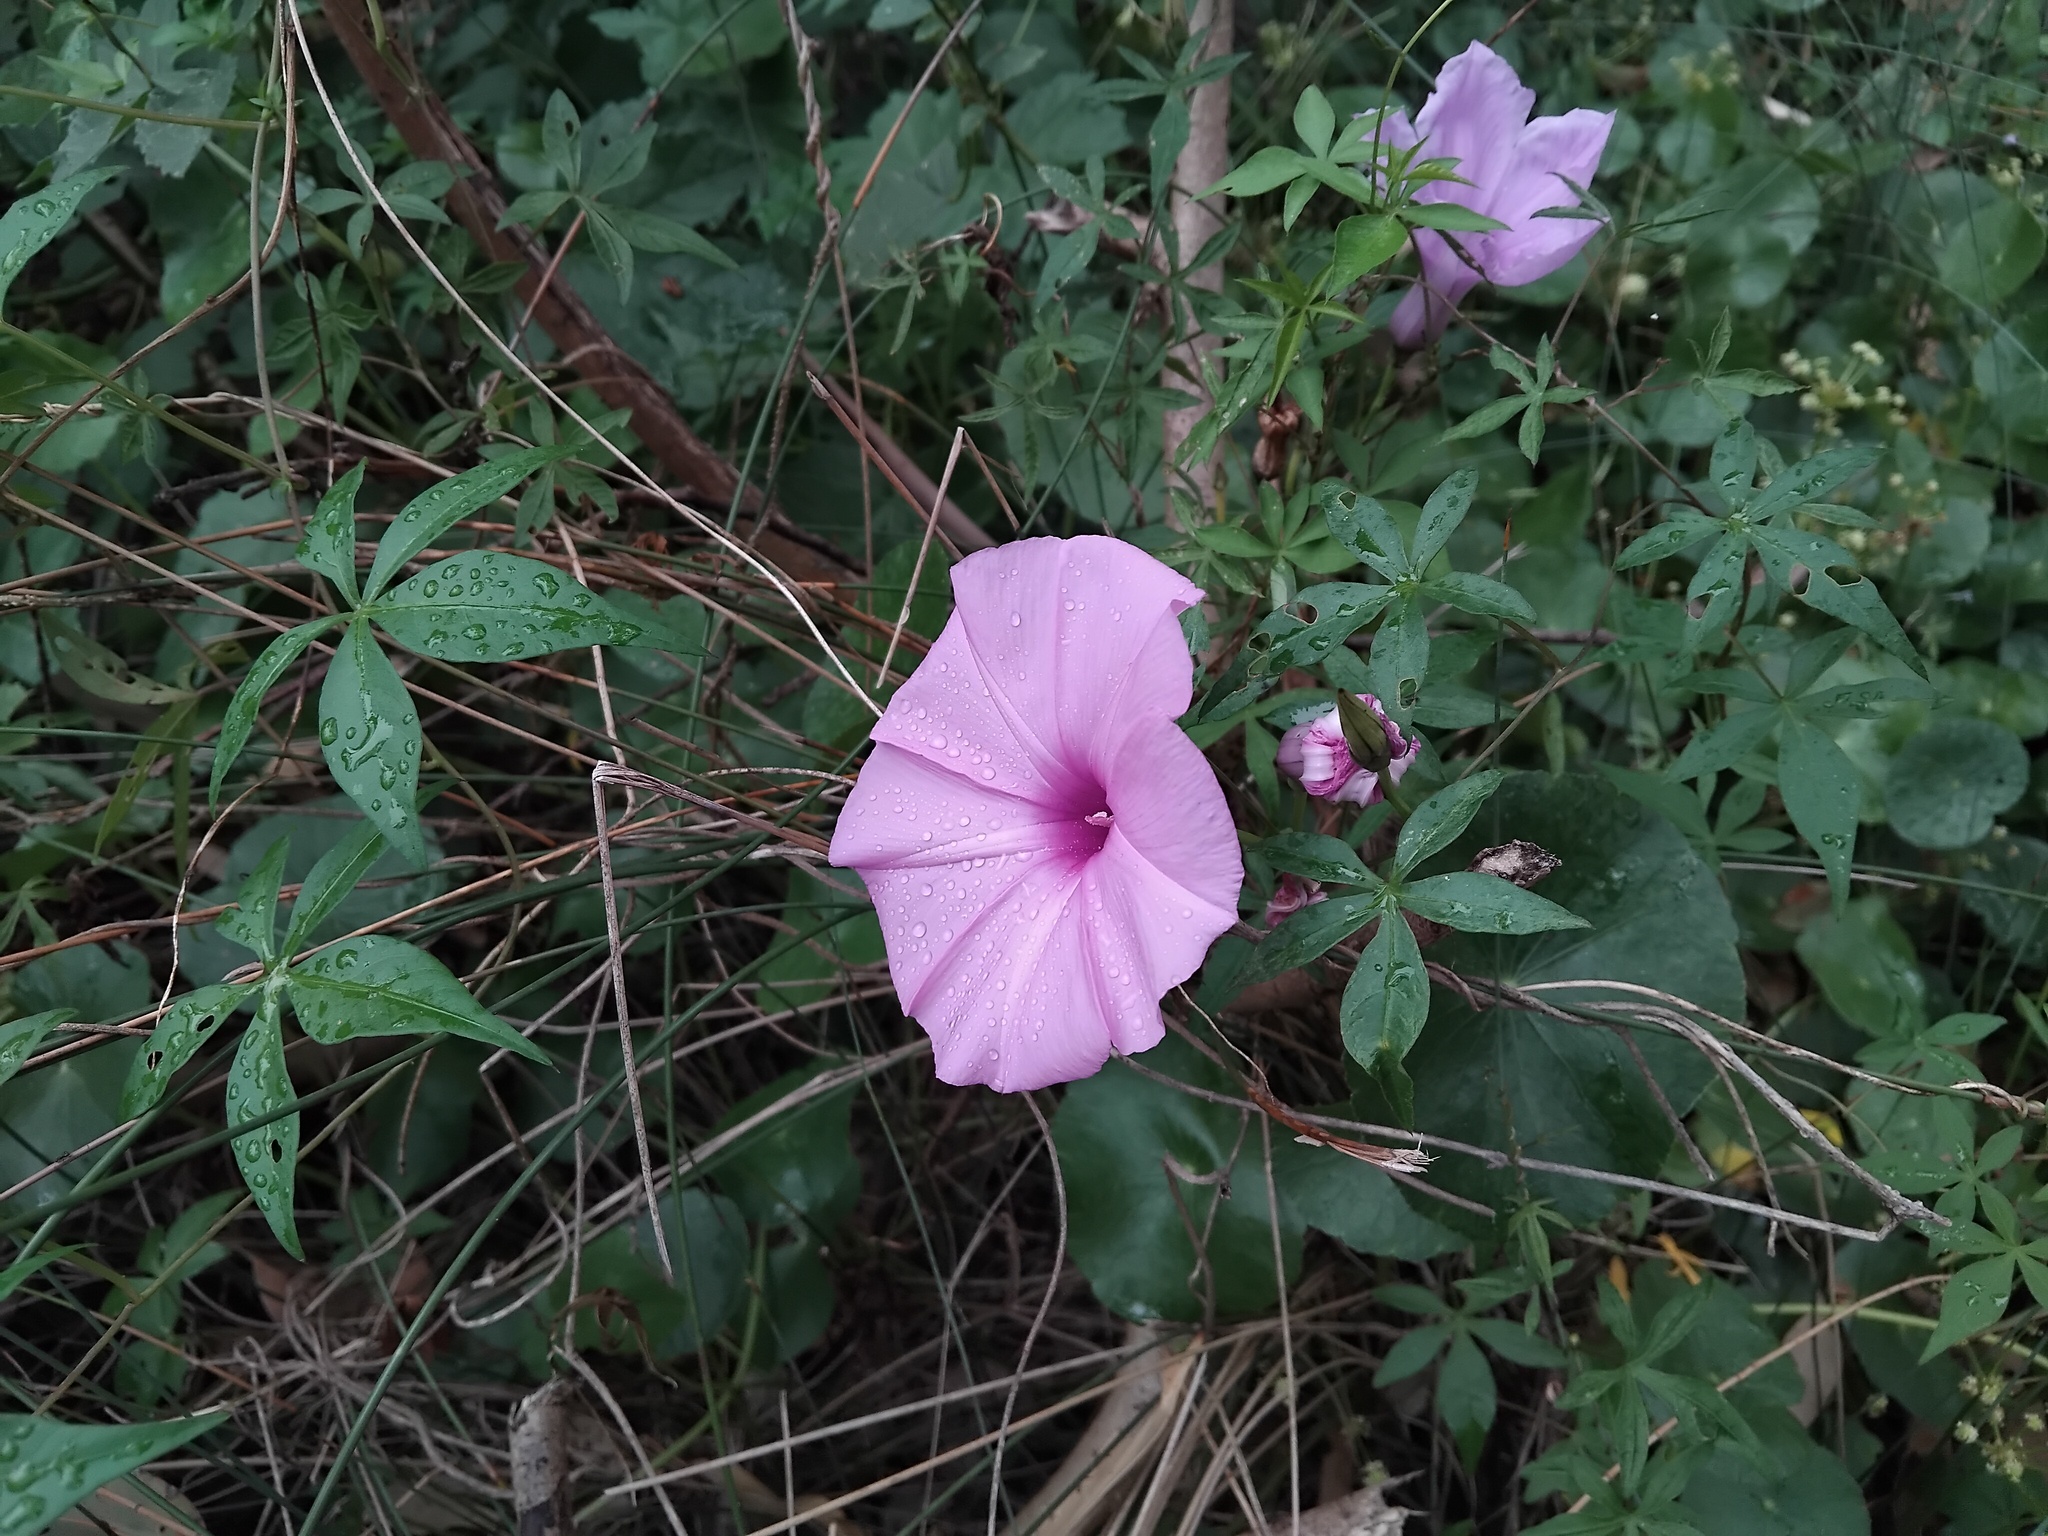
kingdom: Plantae
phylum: Tracheophyta
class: Magnoliopsida
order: Solanales
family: Convolvulaceae
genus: Ipomoea
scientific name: Ipomoea cairica
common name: Mile a minute vine
